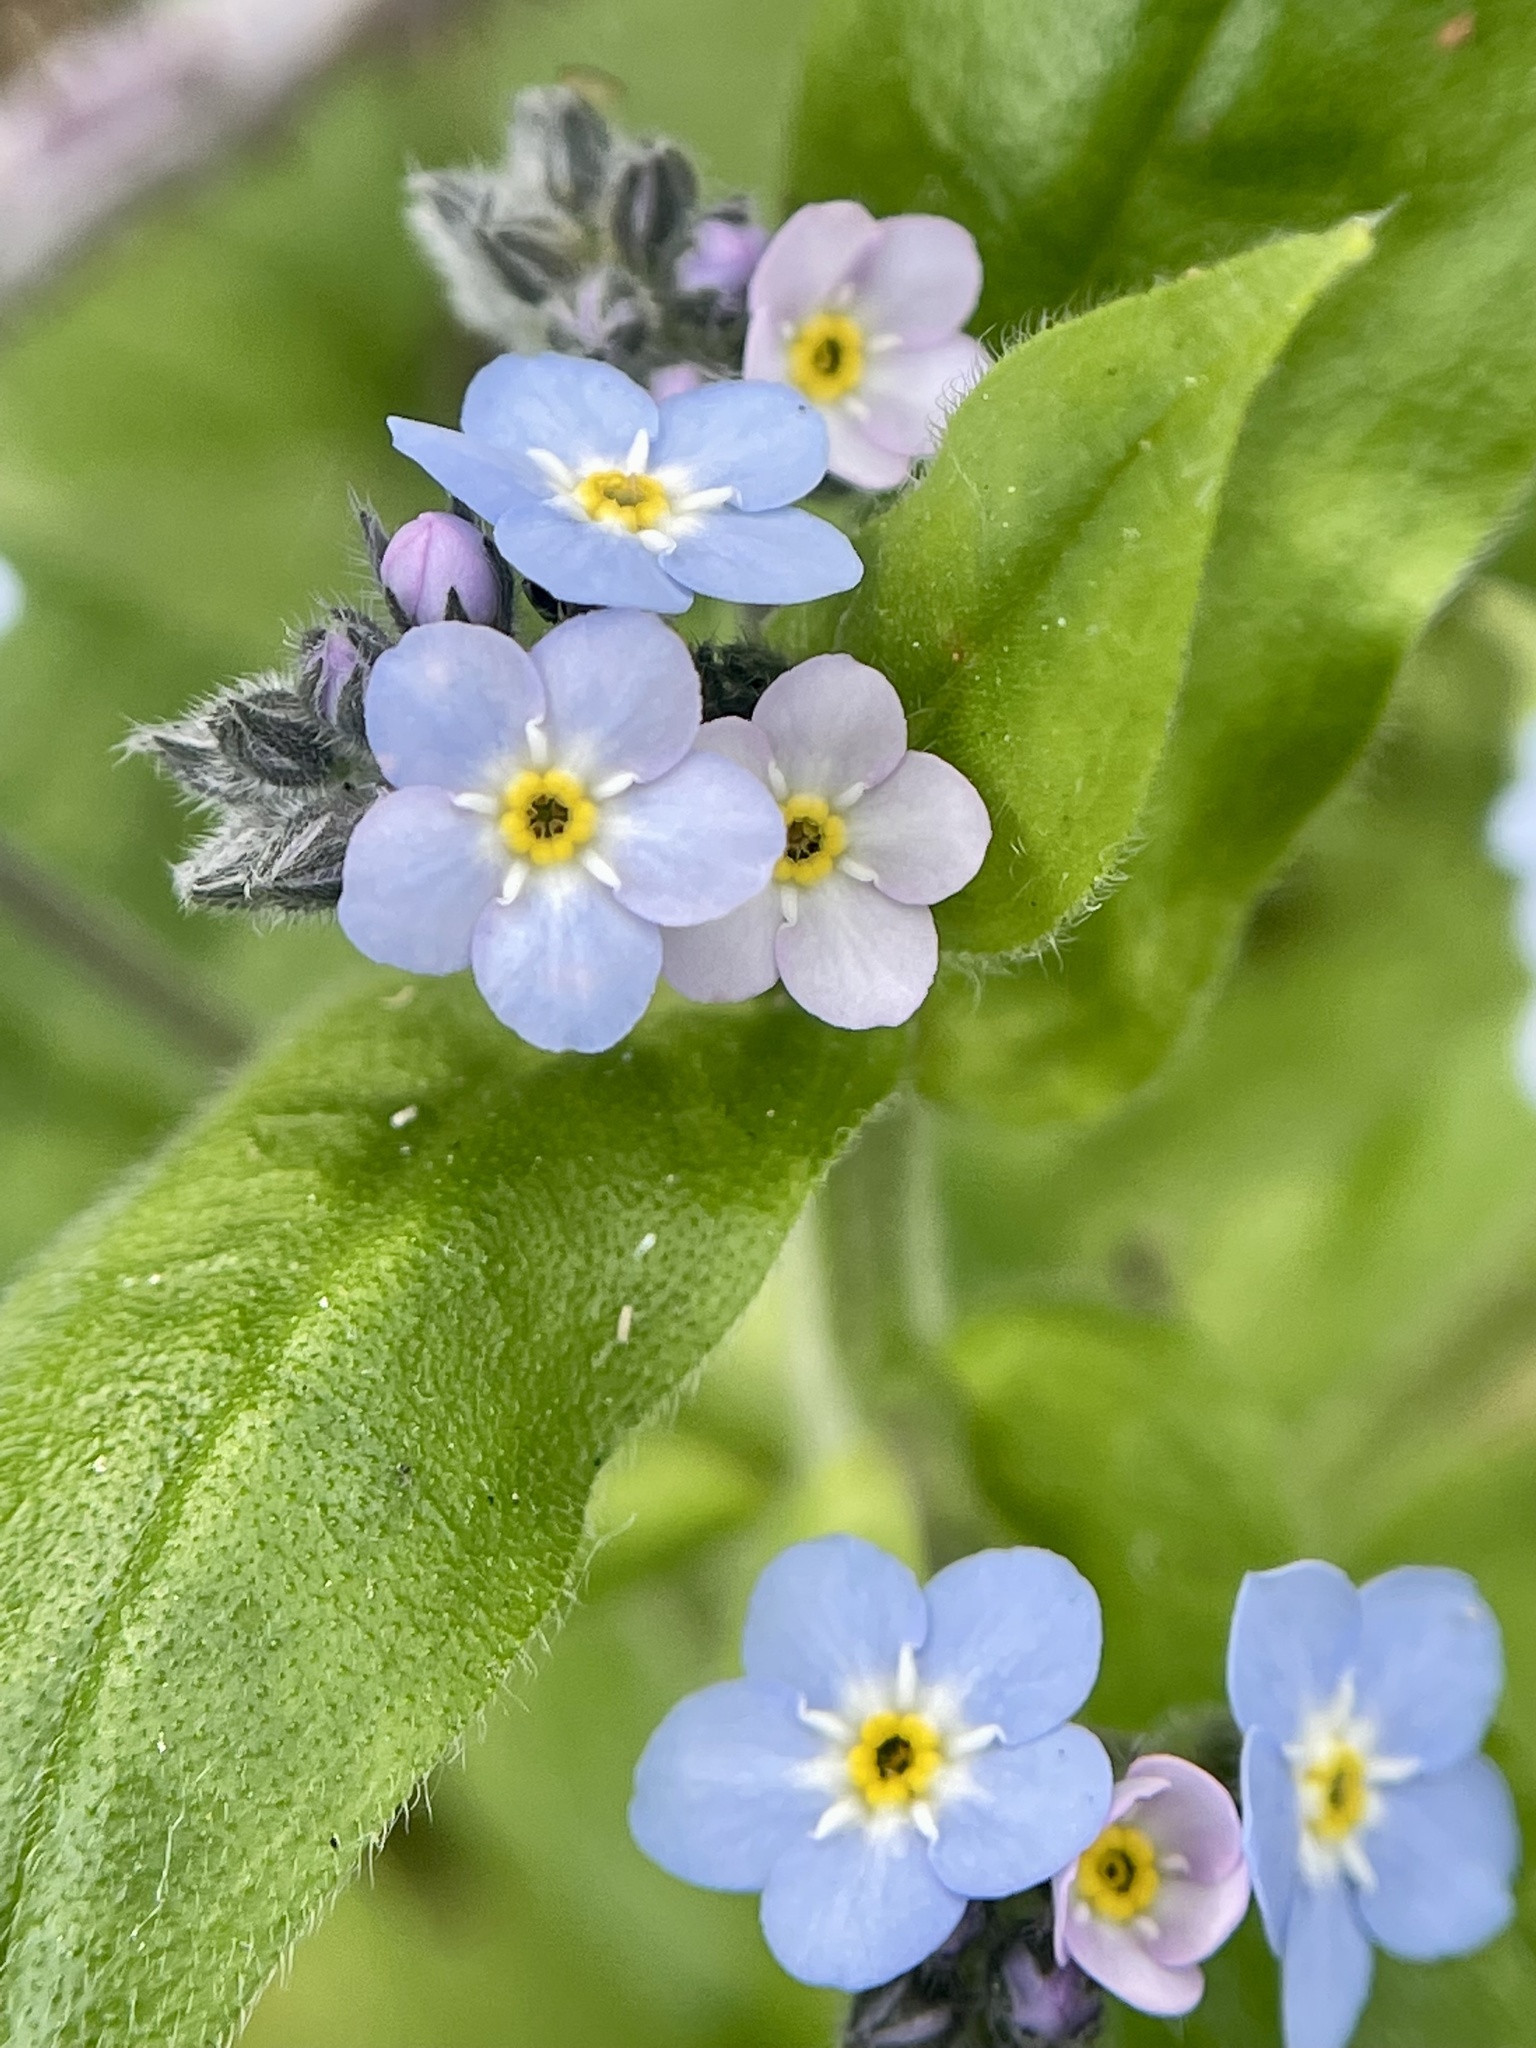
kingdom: Plantae
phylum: Tracheophyta
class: Magnoliopsida
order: Boraginales
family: Boraginaceae
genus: Myosotis
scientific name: Myosotis latifolia
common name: Broadleaf forget-me-not
